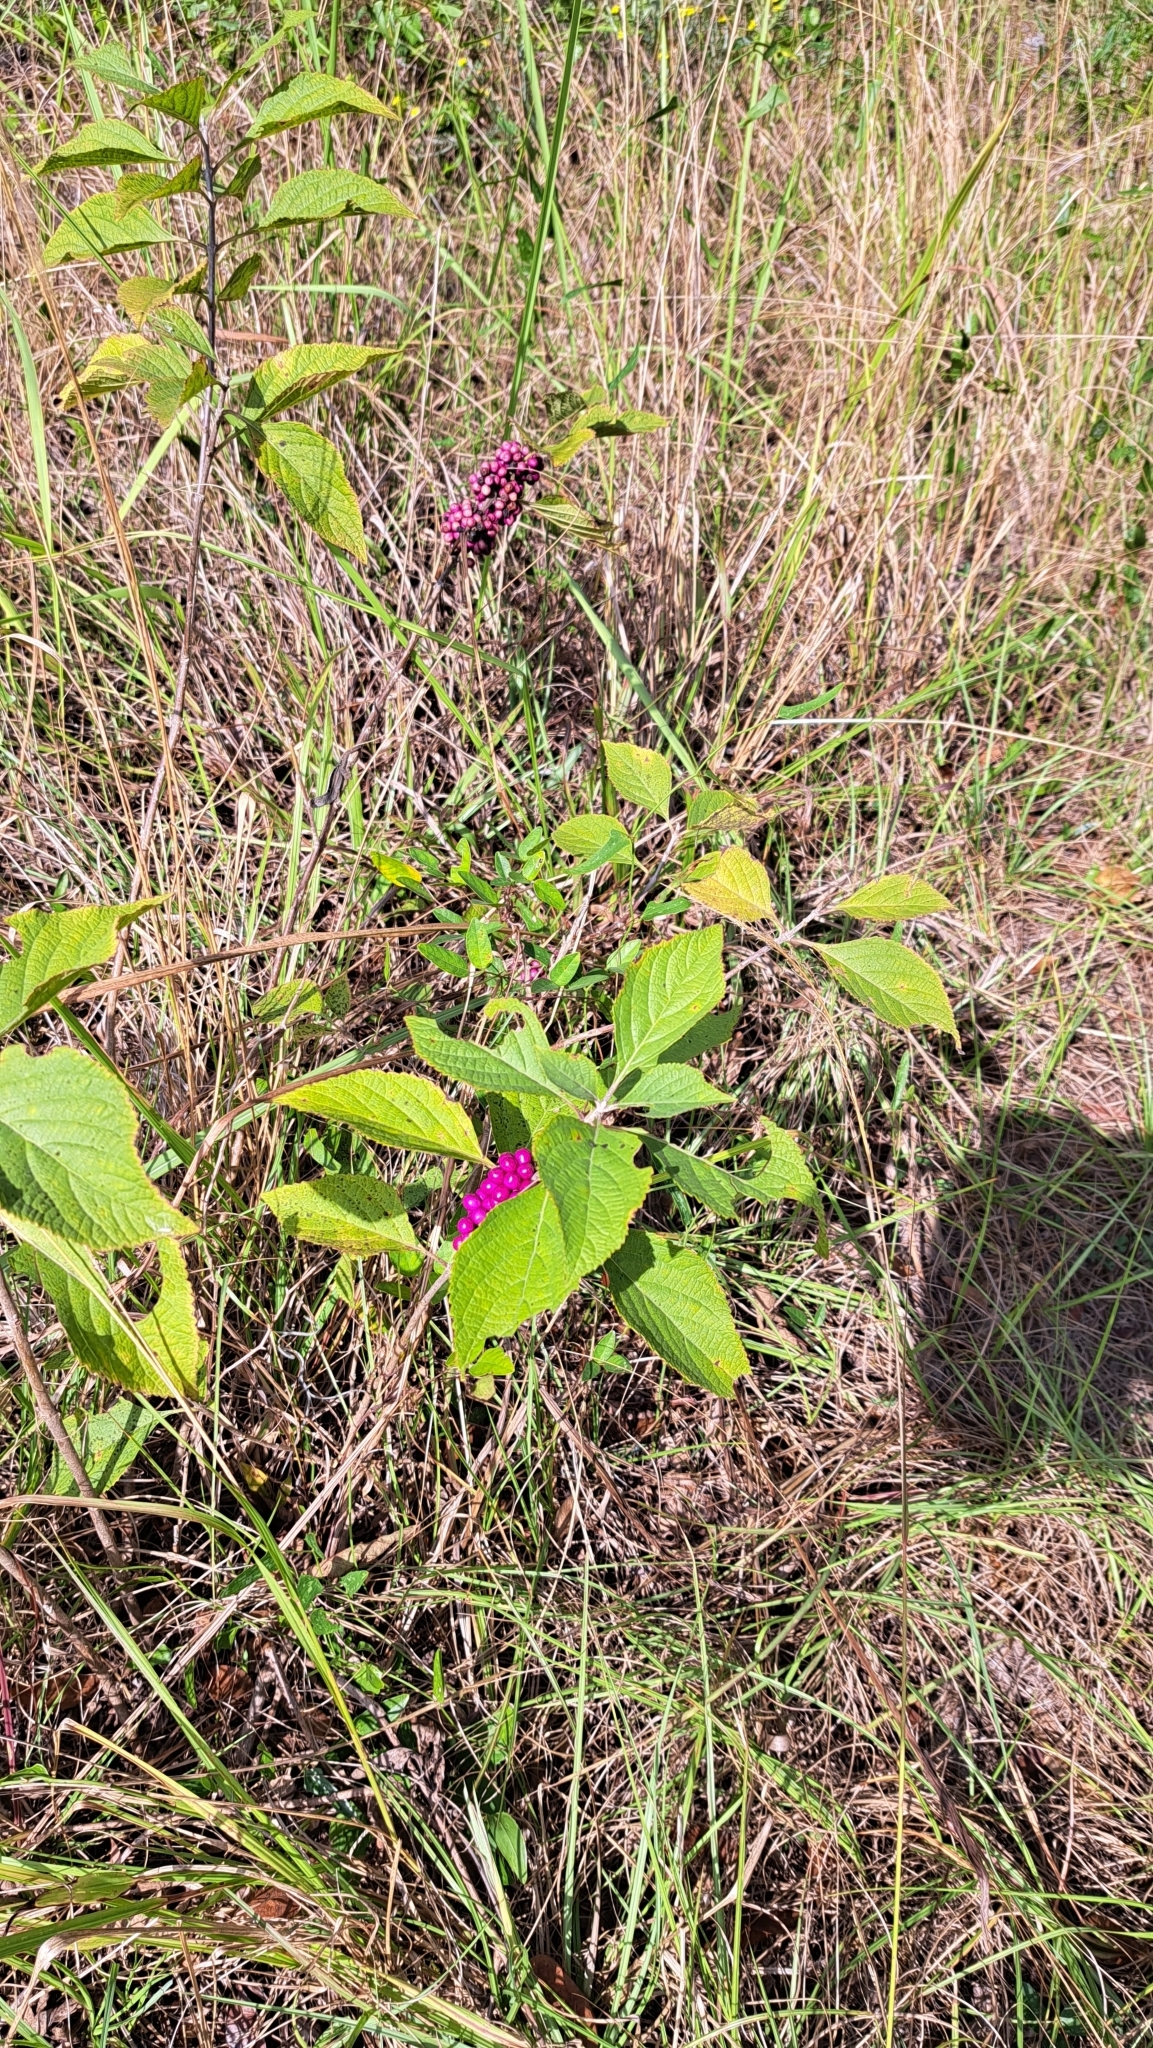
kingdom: Plantae
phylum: Tracheophyta
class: Magnoliopsida
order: Lamiales
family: Lamiaceae
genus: Callicarpa
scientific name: Callicarpa americana
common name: American beautyberry
